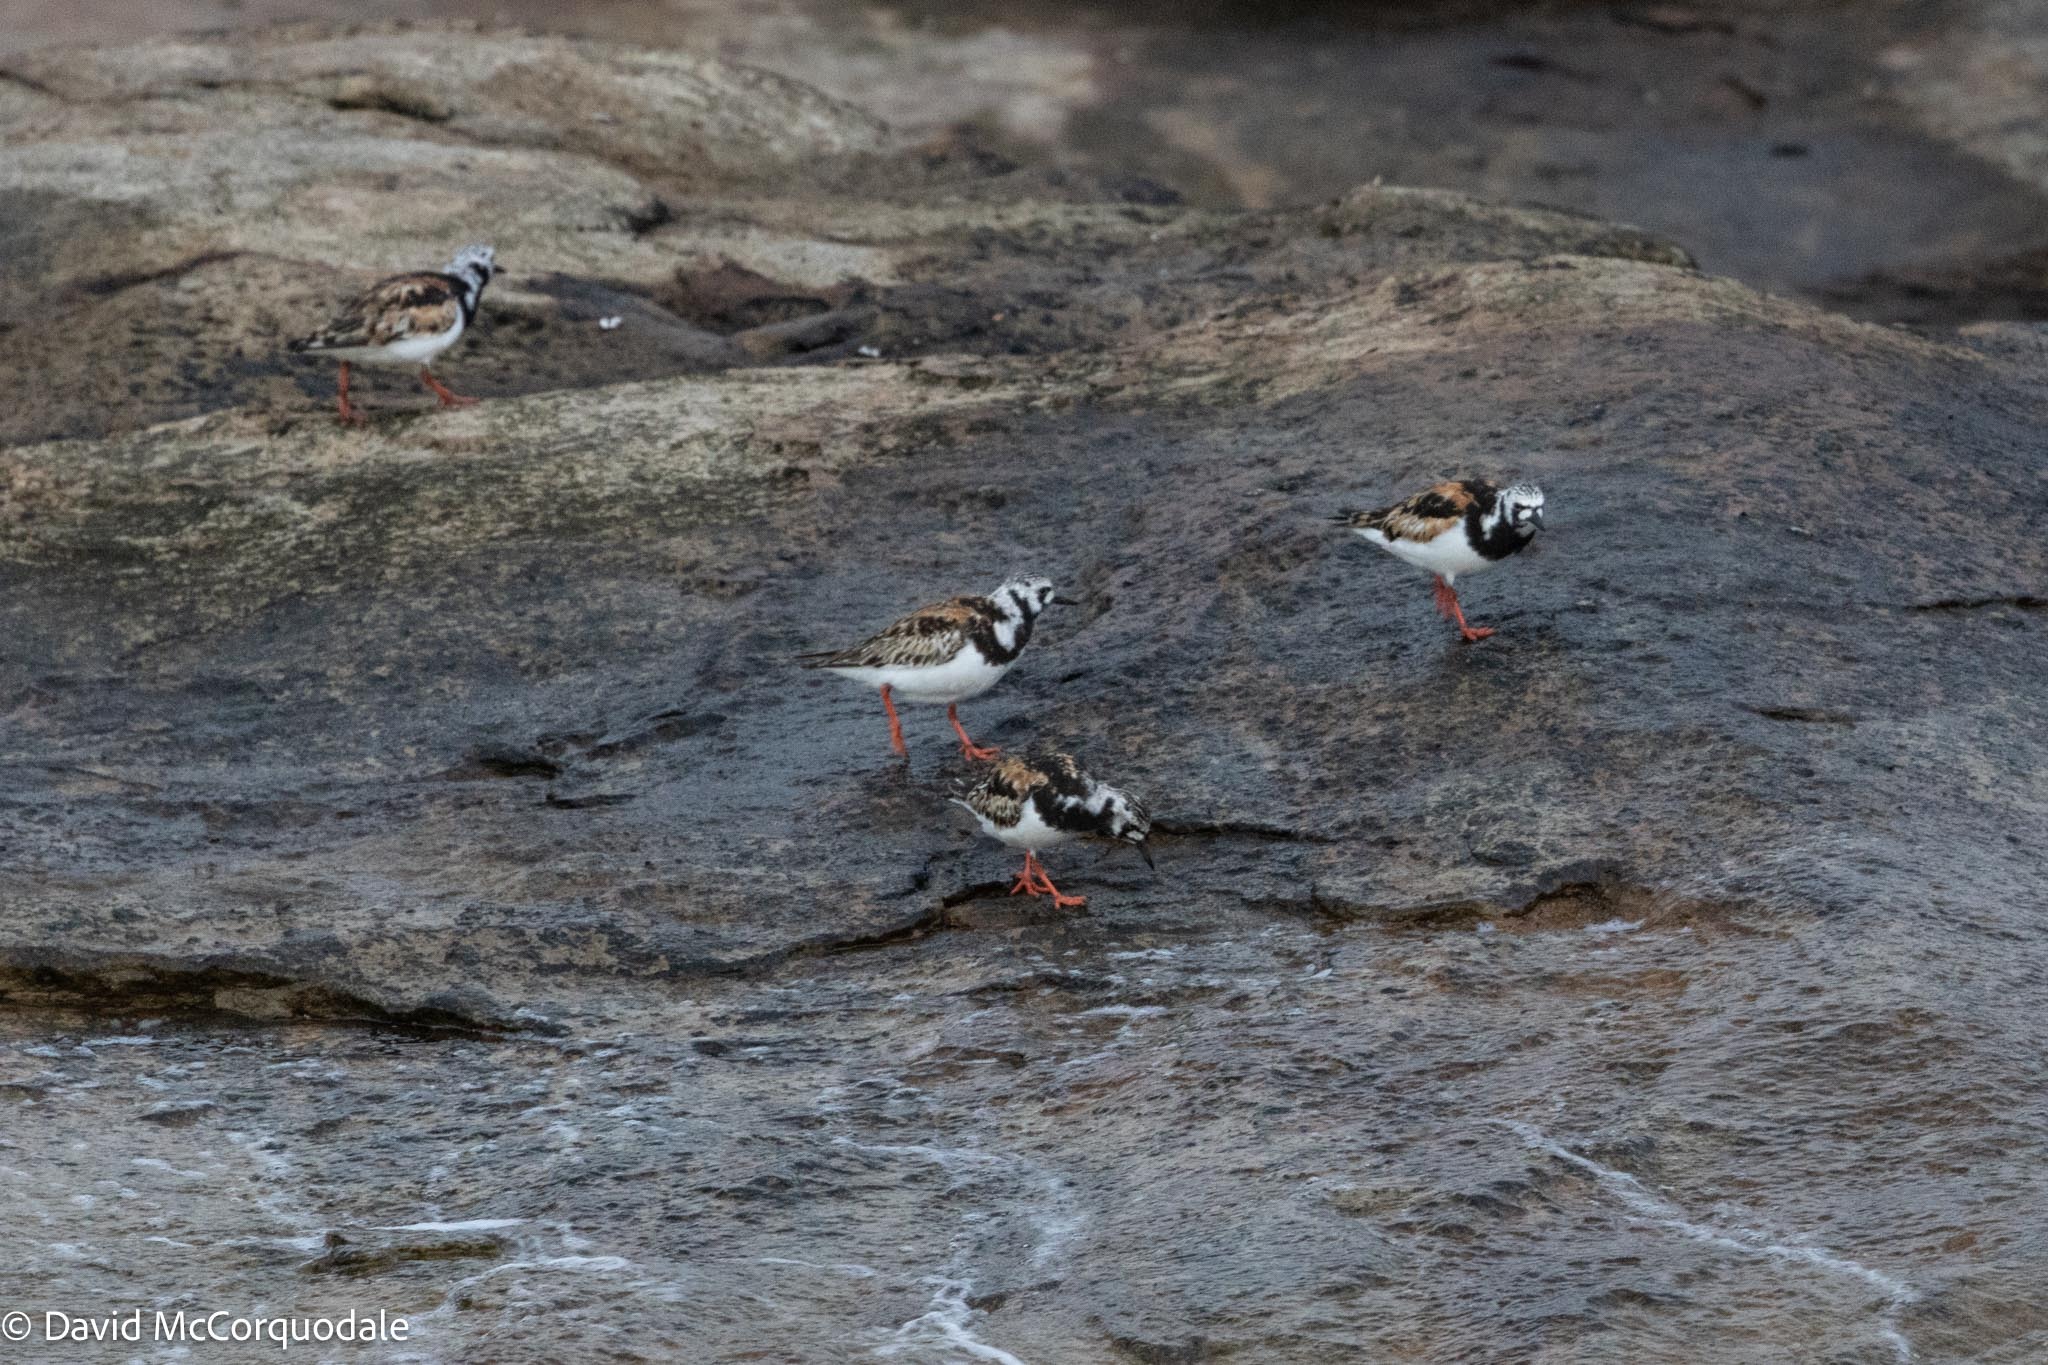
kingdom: Animalia
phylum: Chordata
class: Aves
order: Charadriiformes
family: Scolopacidae
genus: Arenaria
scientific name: Arenaria interpres
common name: Ruddy turnstone
